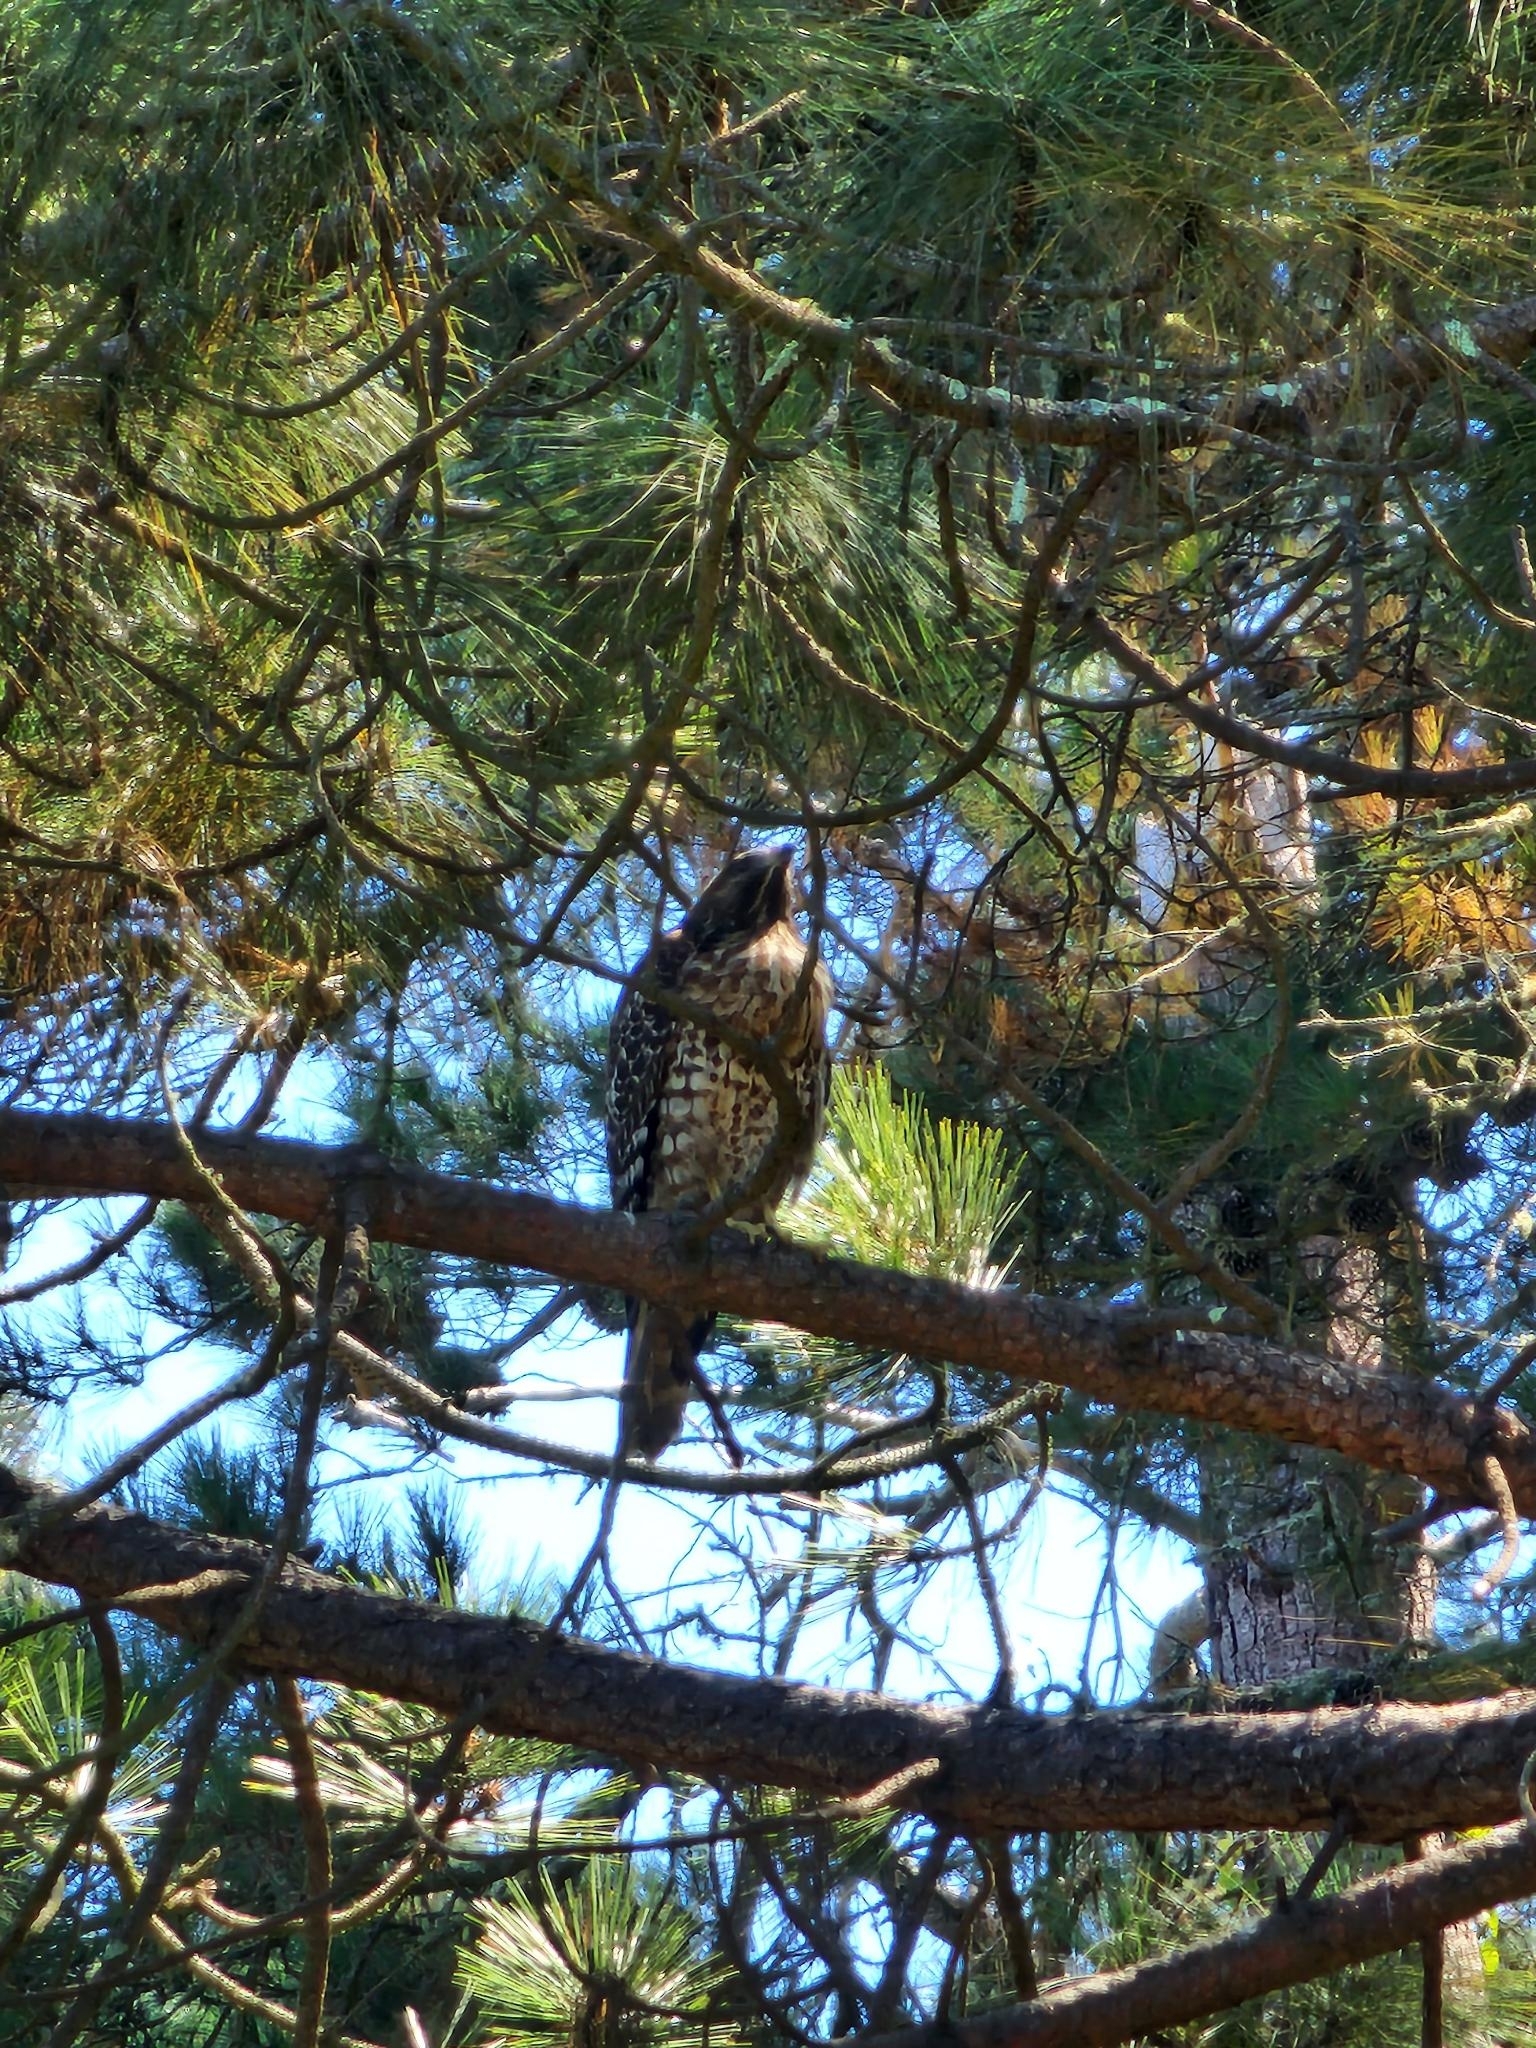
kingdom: Animalia
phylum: Chordata
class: Aves
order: Accipitriformes
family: Accipitridae
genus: Buteo
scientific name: Buteo lineatus
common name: Red-shouldered hawk
